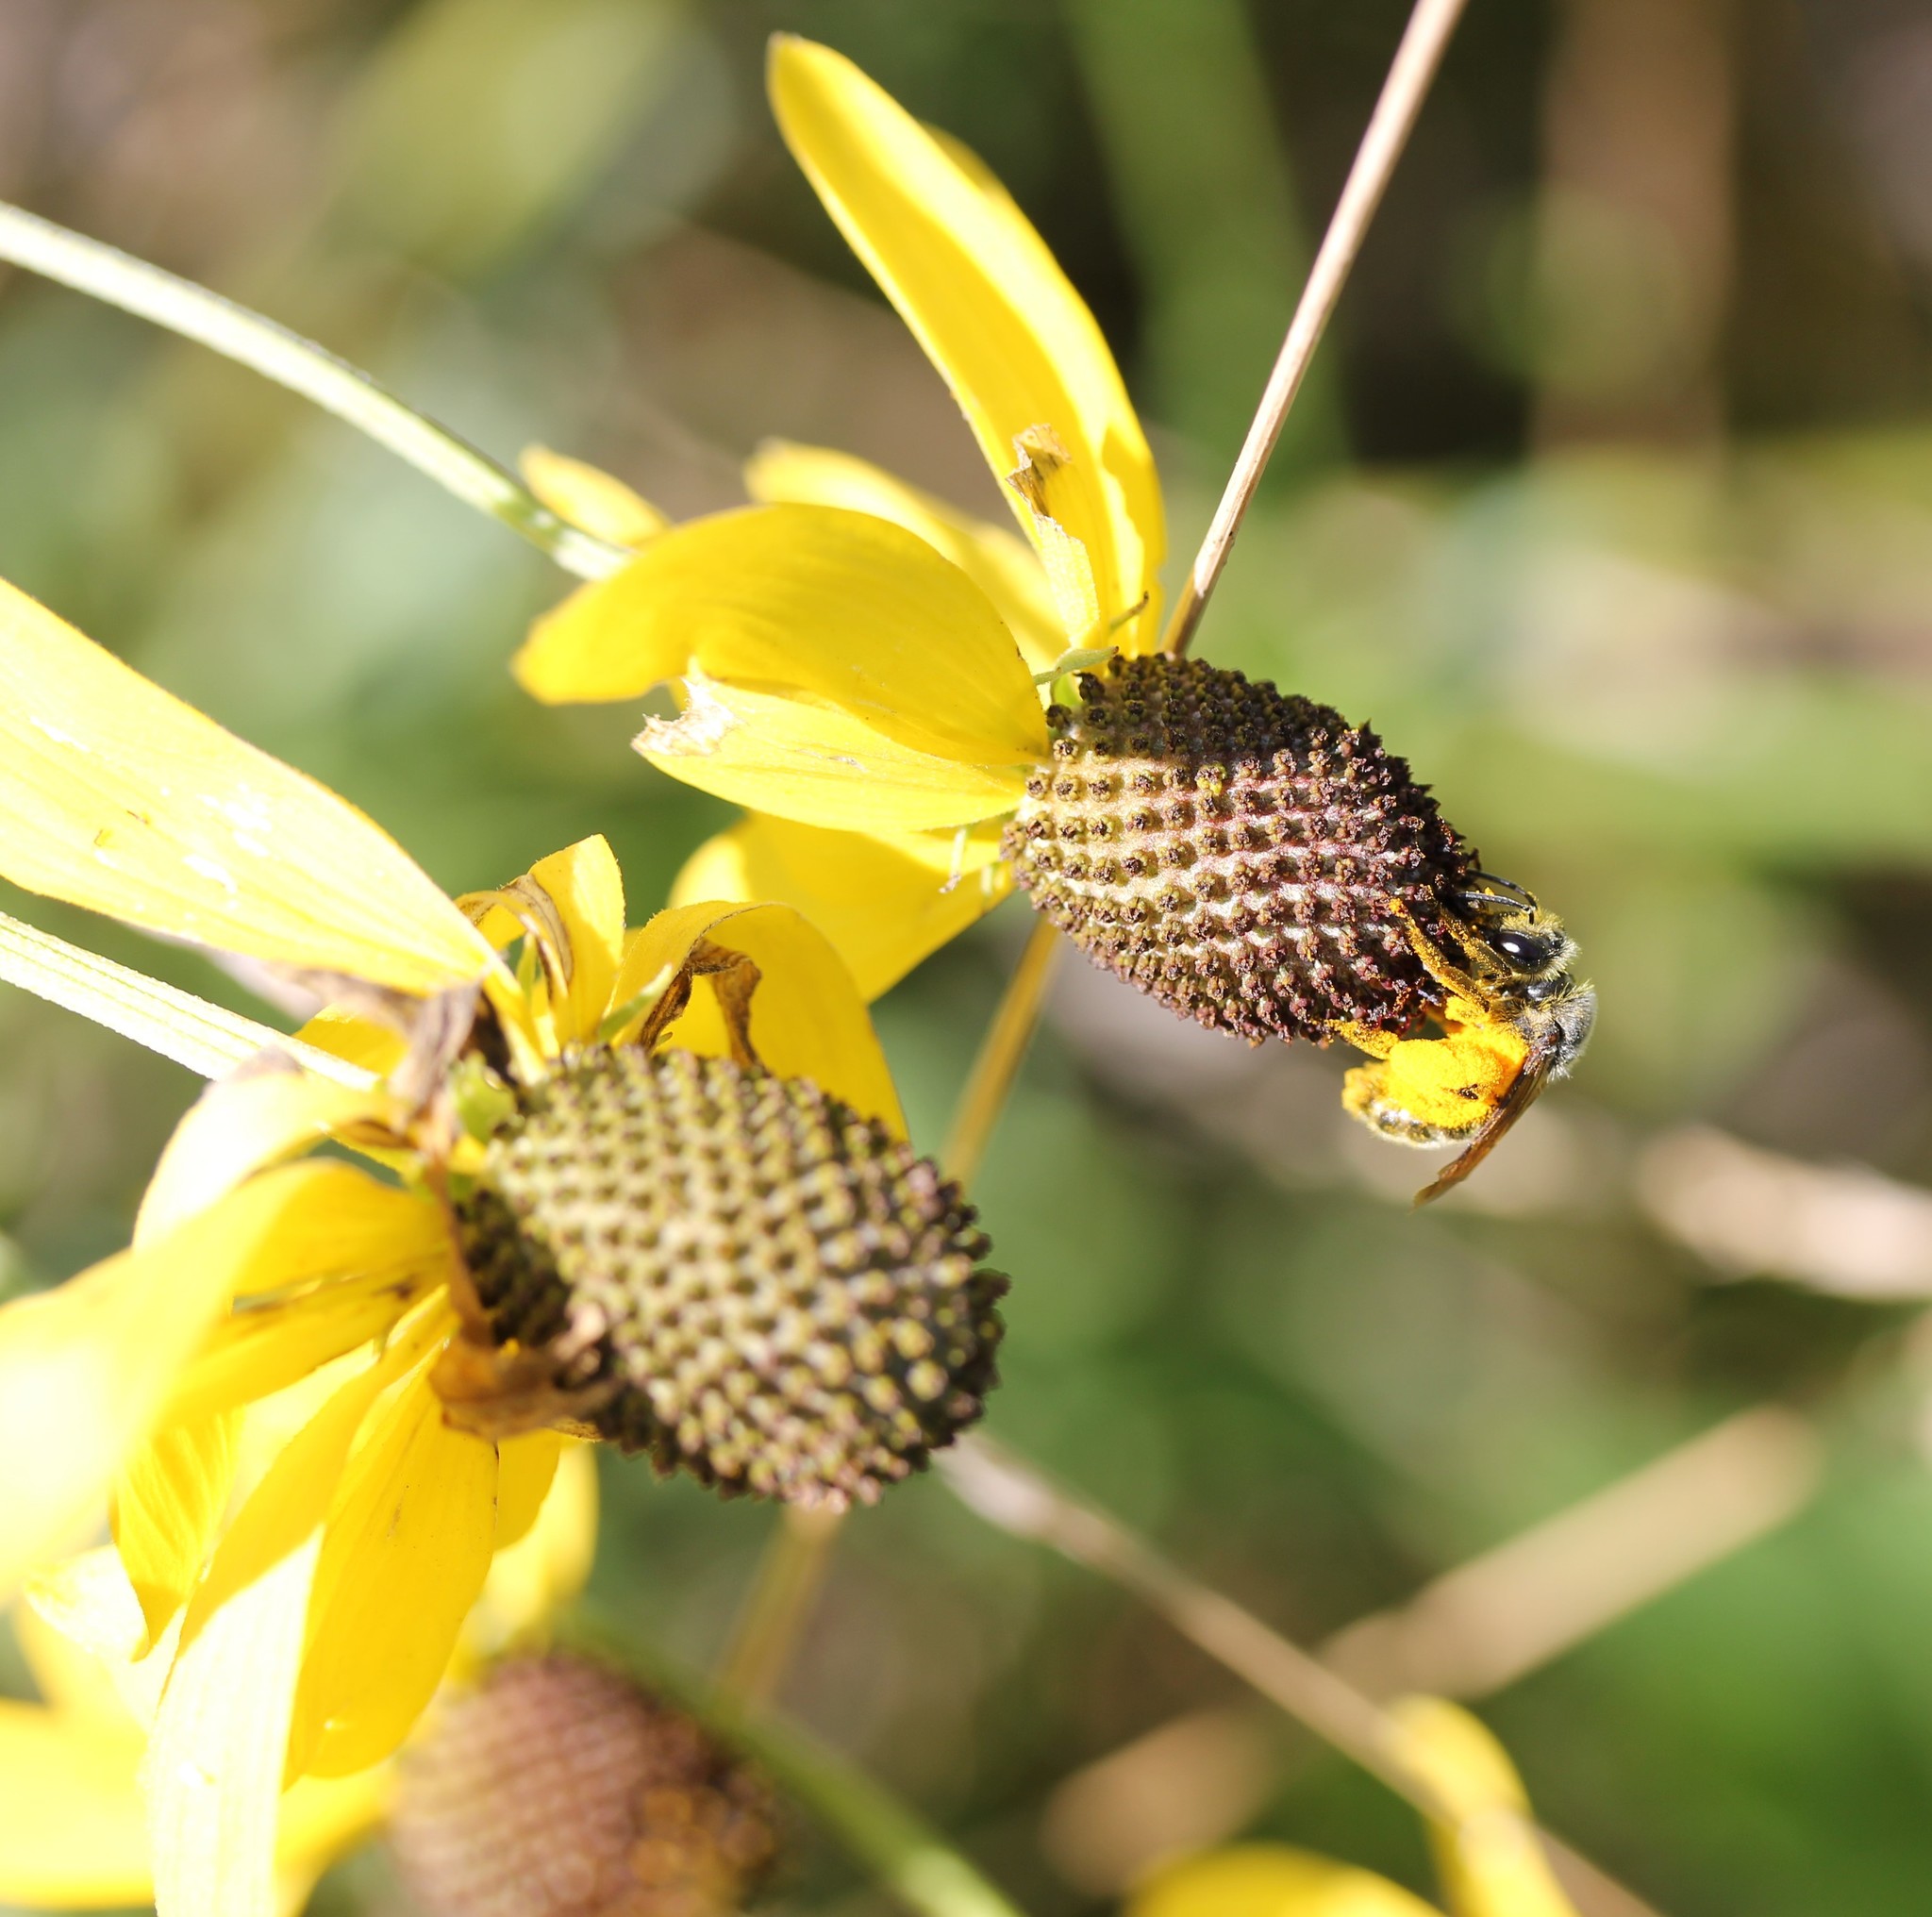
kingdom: Plantae
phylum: Tracheophyta
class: Magnoliopsida
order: Asterales
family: Asteraceae
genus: Ratibida
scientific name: Ratibida pinnata
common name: Drooping prairie-coneflower
